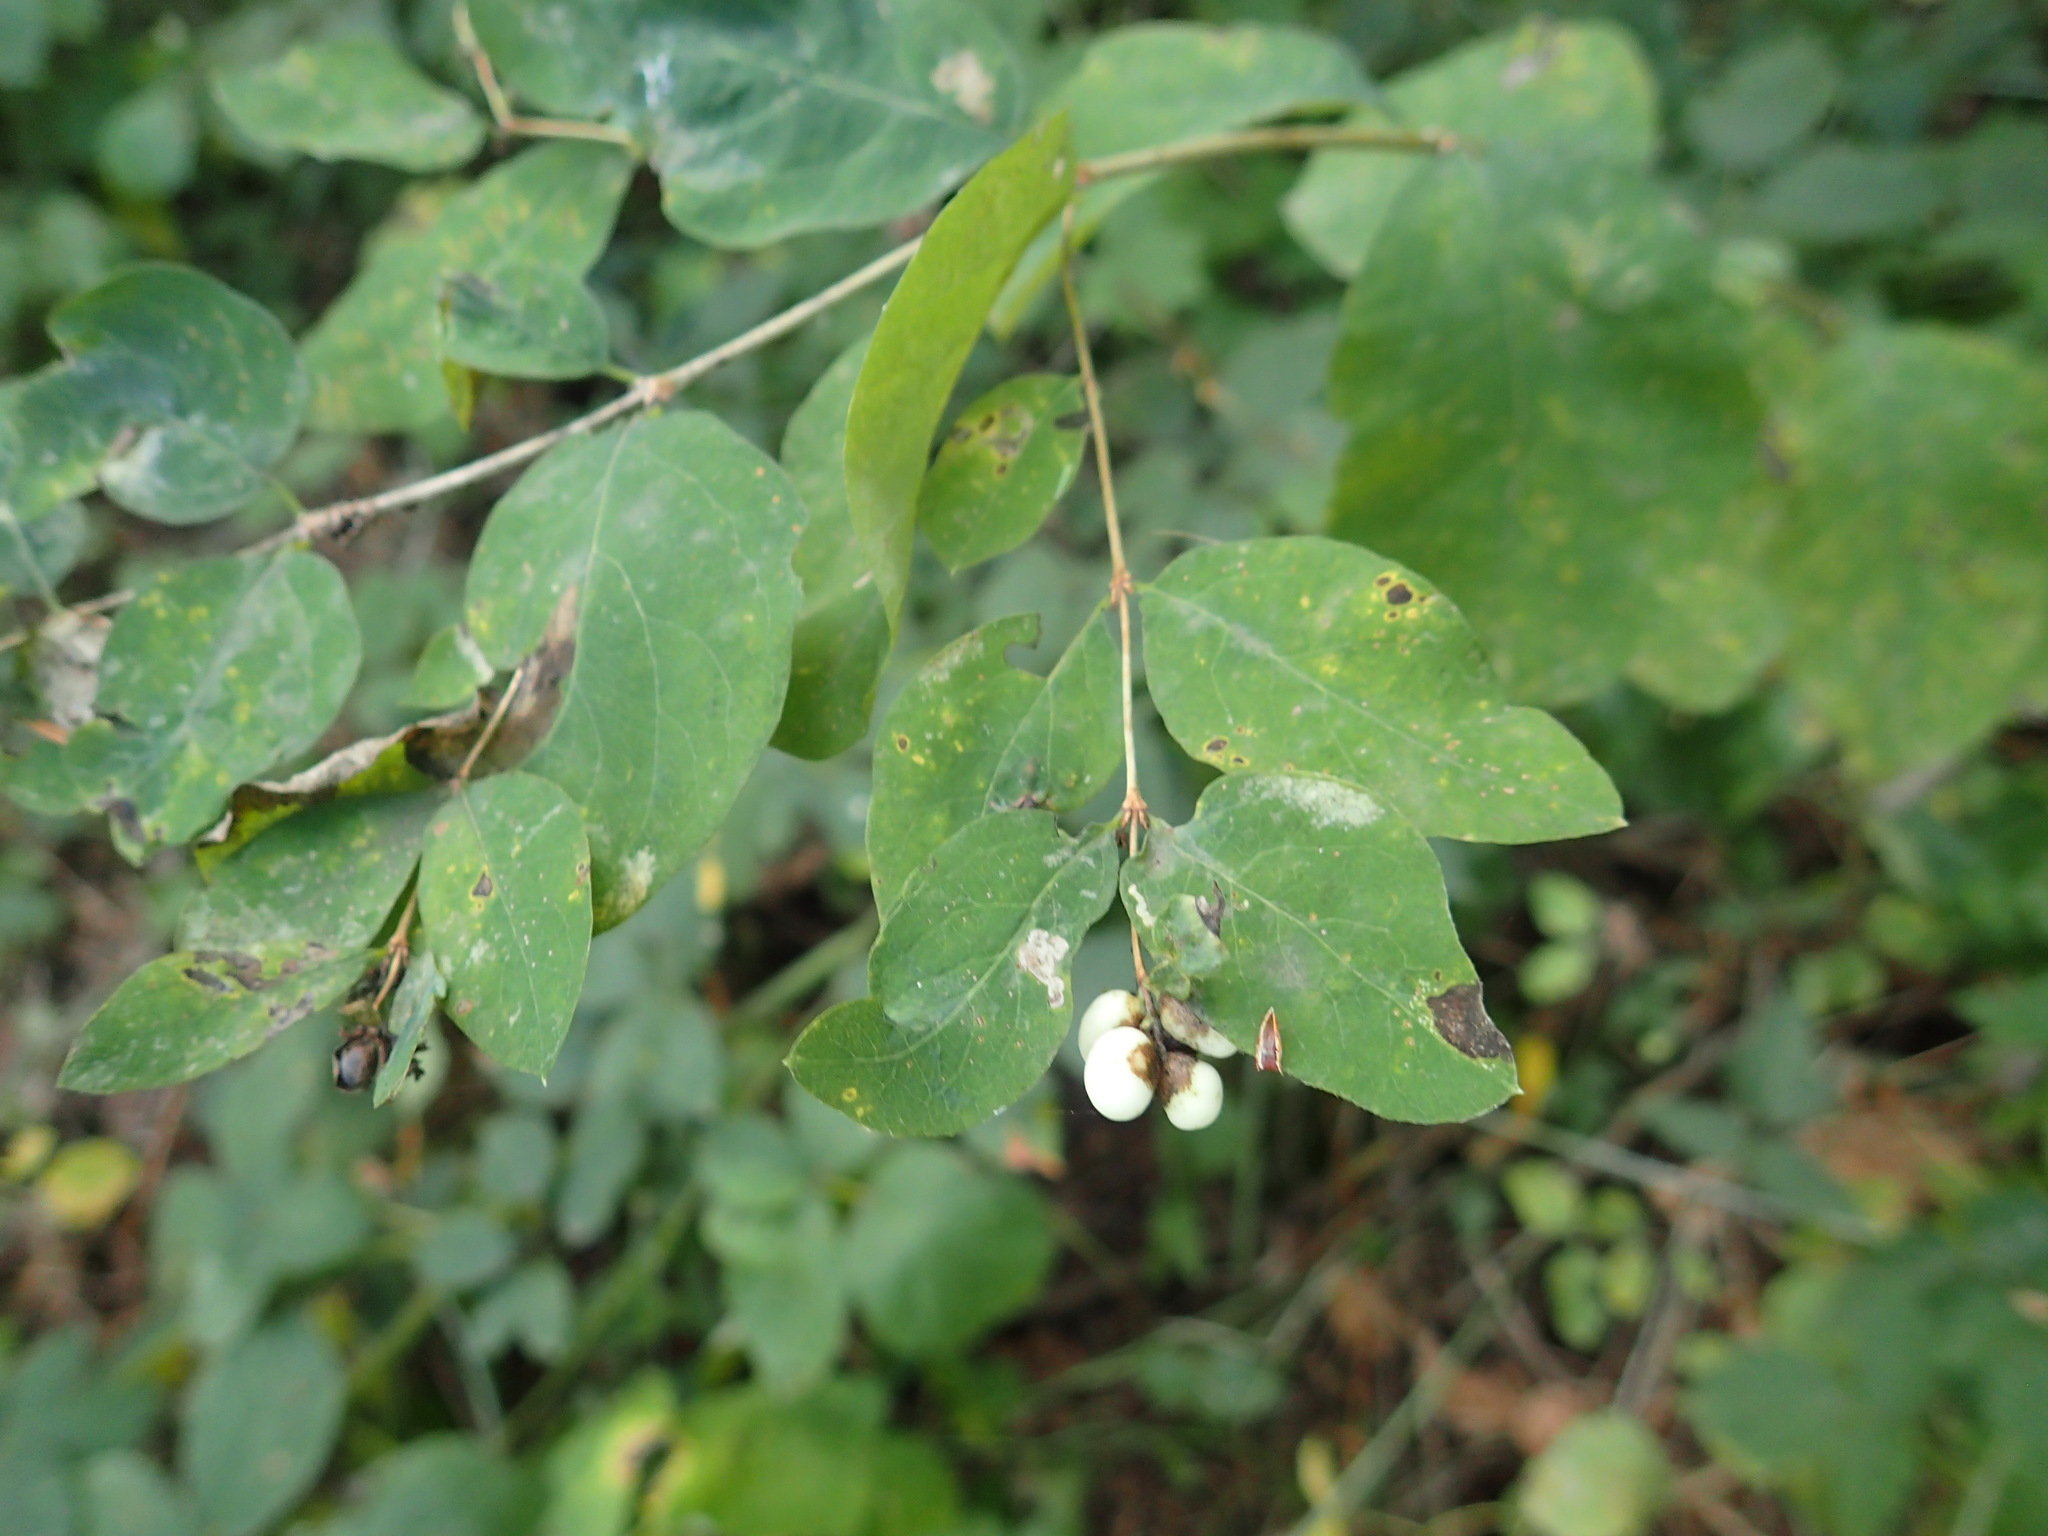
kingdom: Plantae
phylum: Tracheophyta
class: Magnoliopsida
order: Dipsacales
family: Caprifoliaceae
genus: Symphoricarpos
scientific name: Symphoricarpos albus
